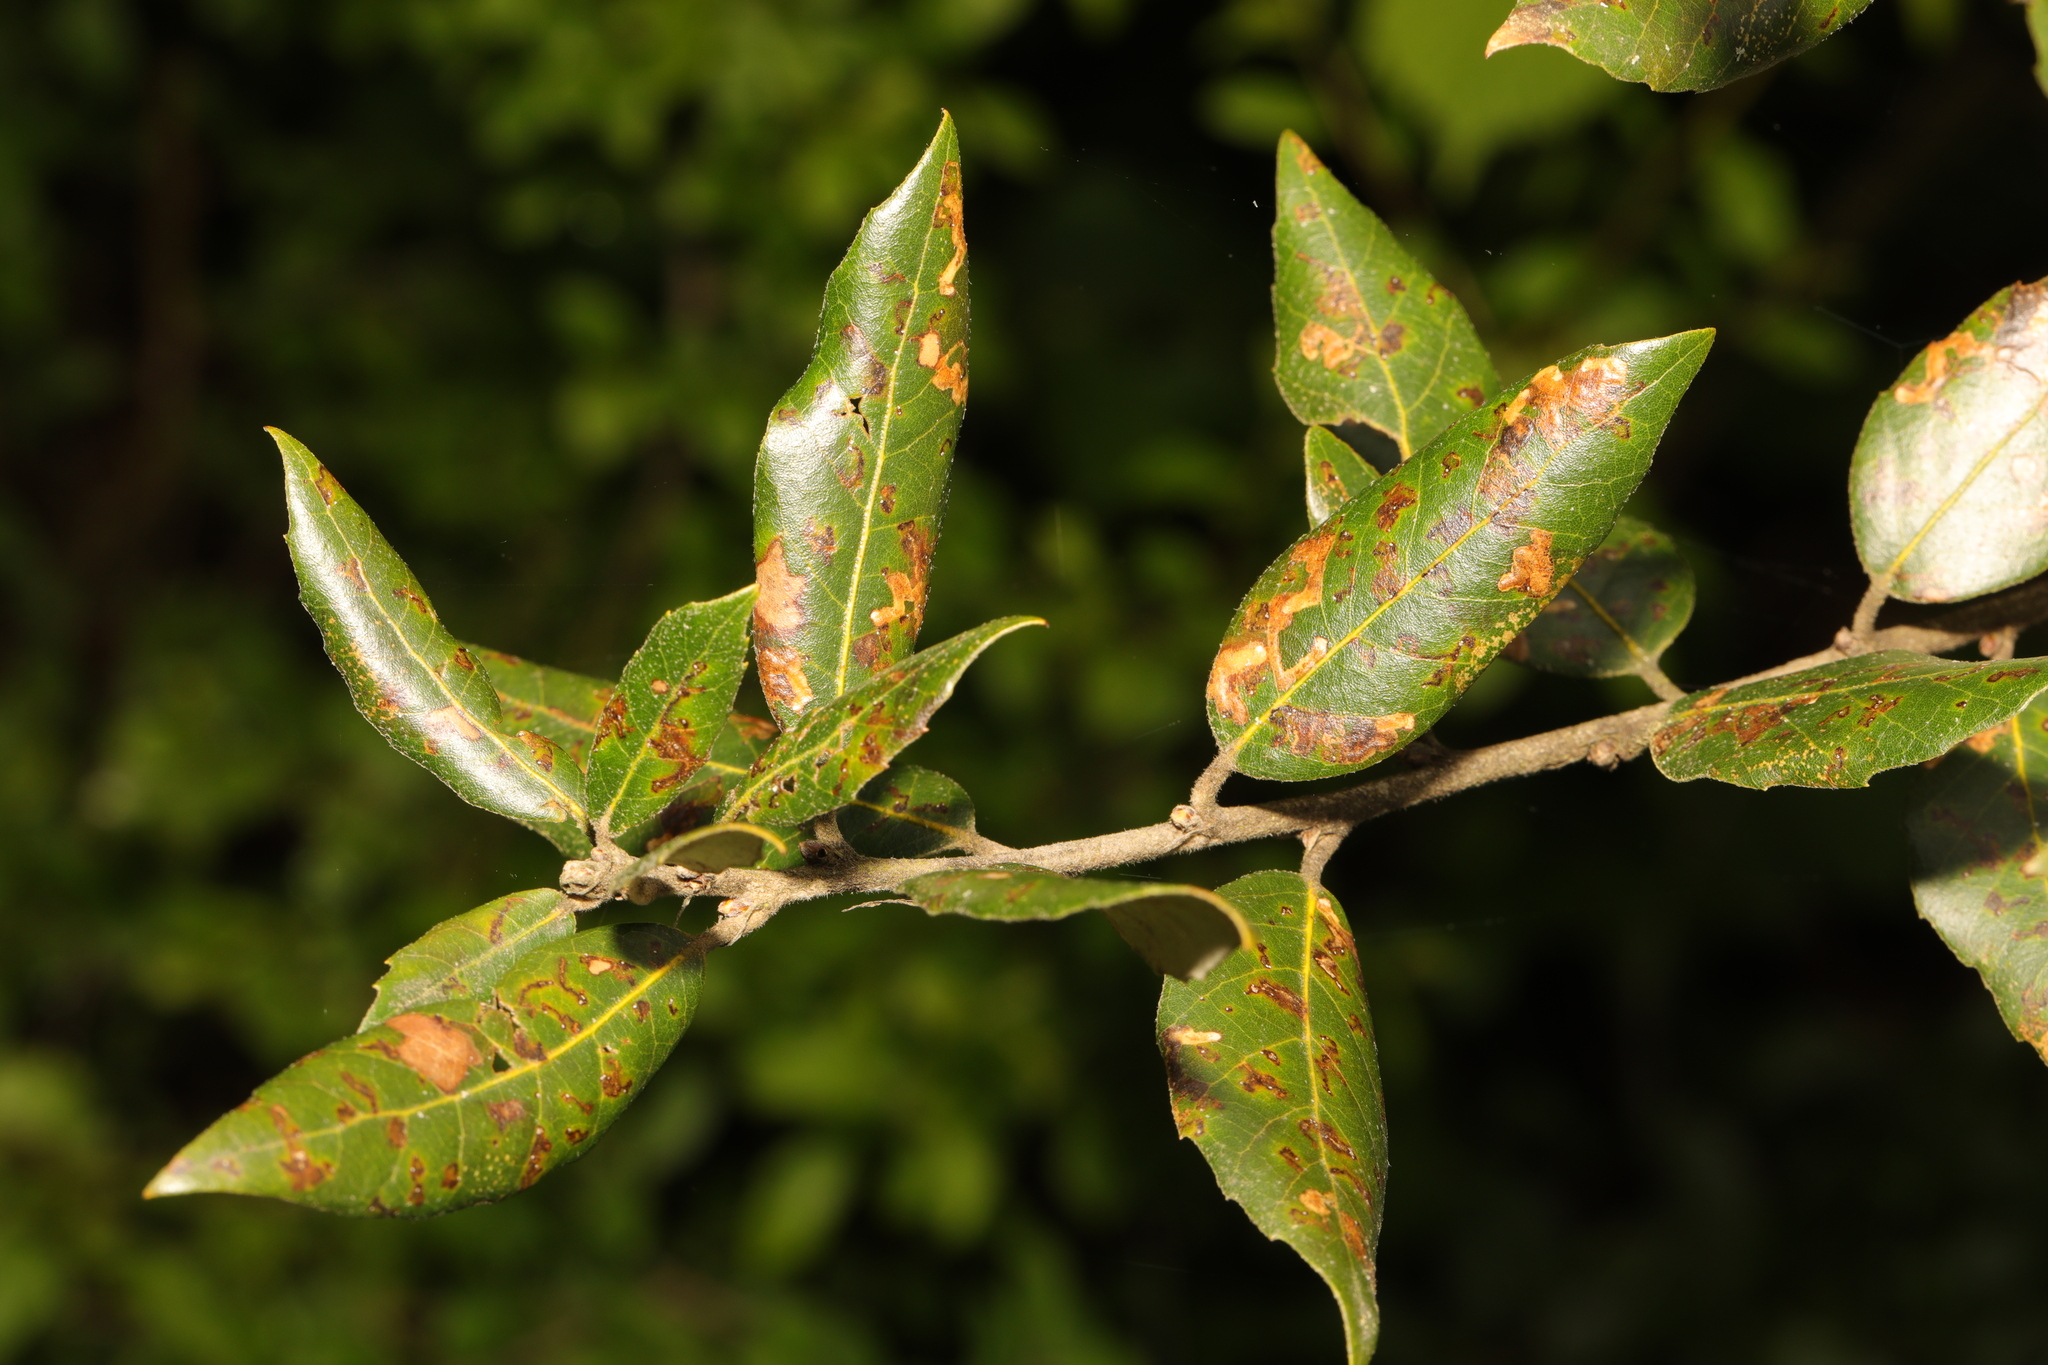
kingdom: Plantae
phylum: Tracheophyta
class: Magnoliopsida
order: Fagales
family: Fagaceae
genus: Quercus
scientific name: Quercus ilex
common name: Evergreen oak
